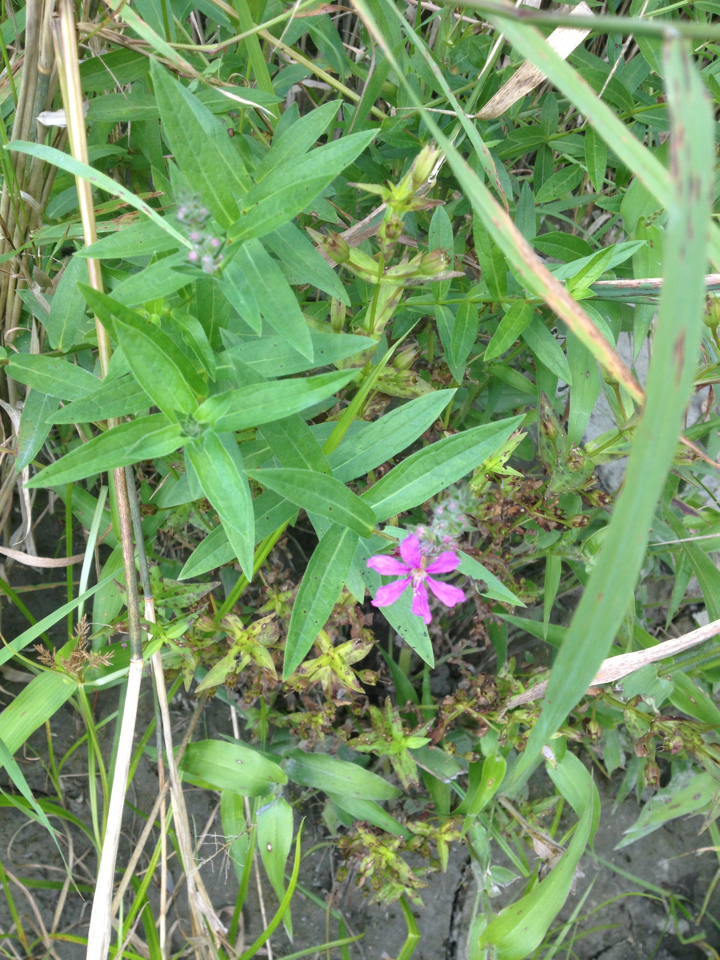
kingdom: Plantae
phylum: Tracheophyta
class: Magnoliopsida
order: Myrtales
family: Lythraceae
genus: Lythrum
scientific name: Lythrum salicaria
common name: Purple loosestrife
